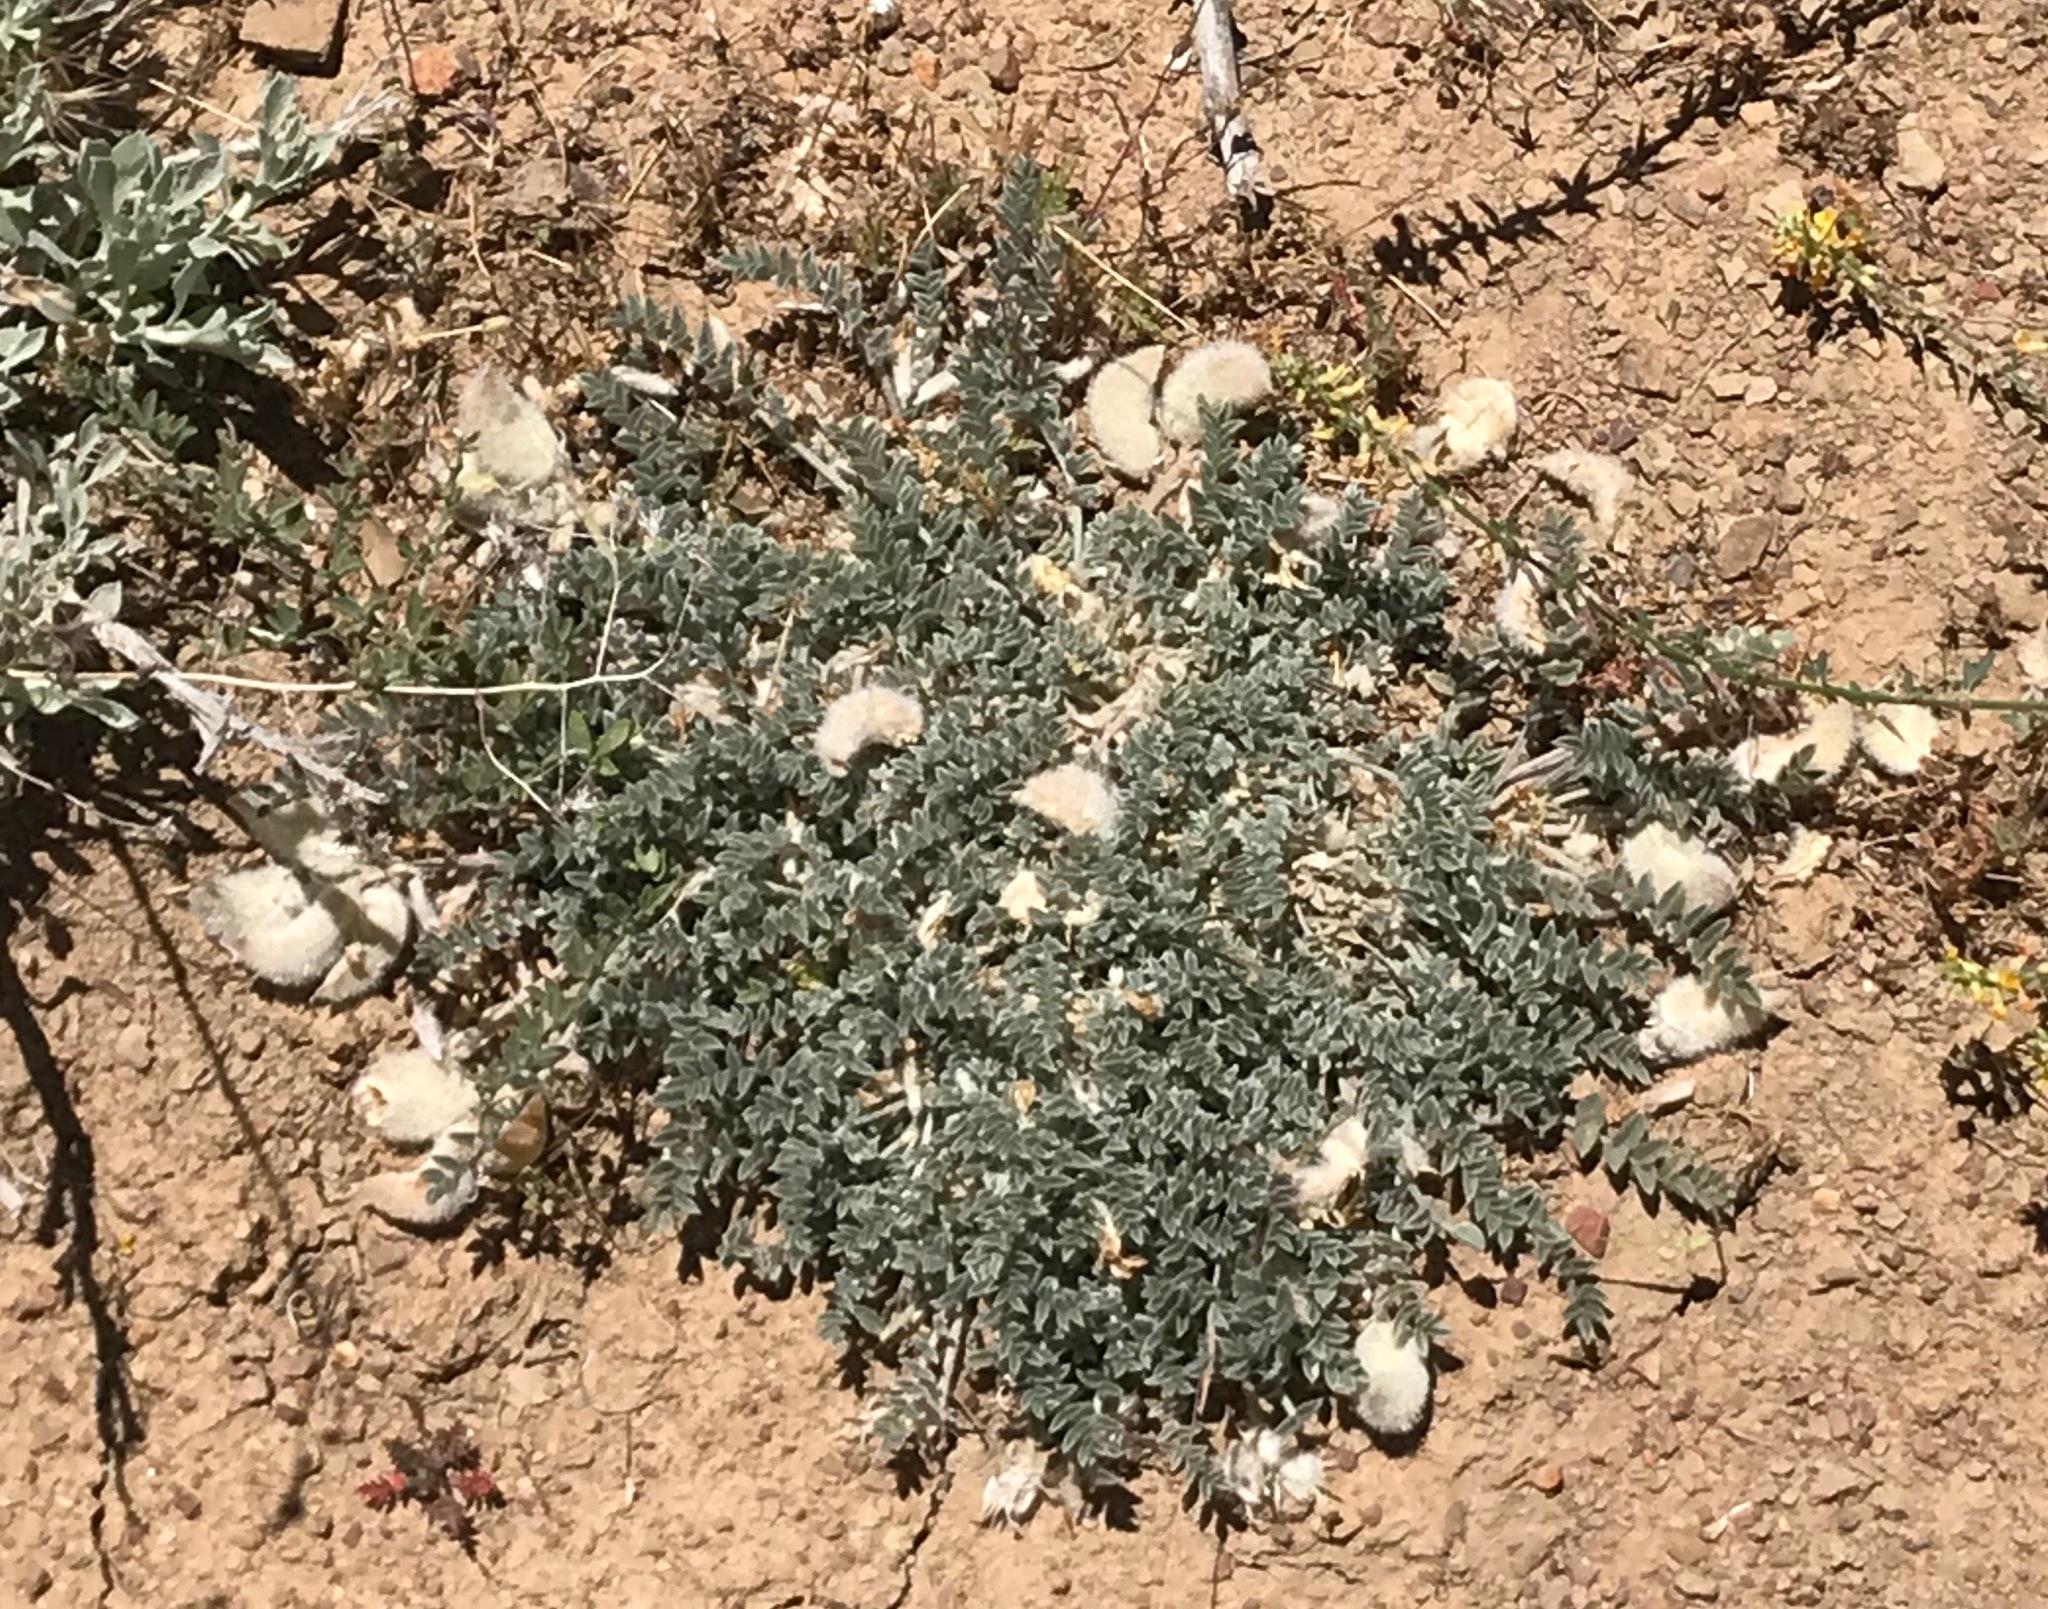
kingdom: Plantae
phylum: Tracheophyta
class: Magnoliopsida
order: Fabales
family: Fabaceae
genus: Astragalus
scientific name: Astragalus purshii
